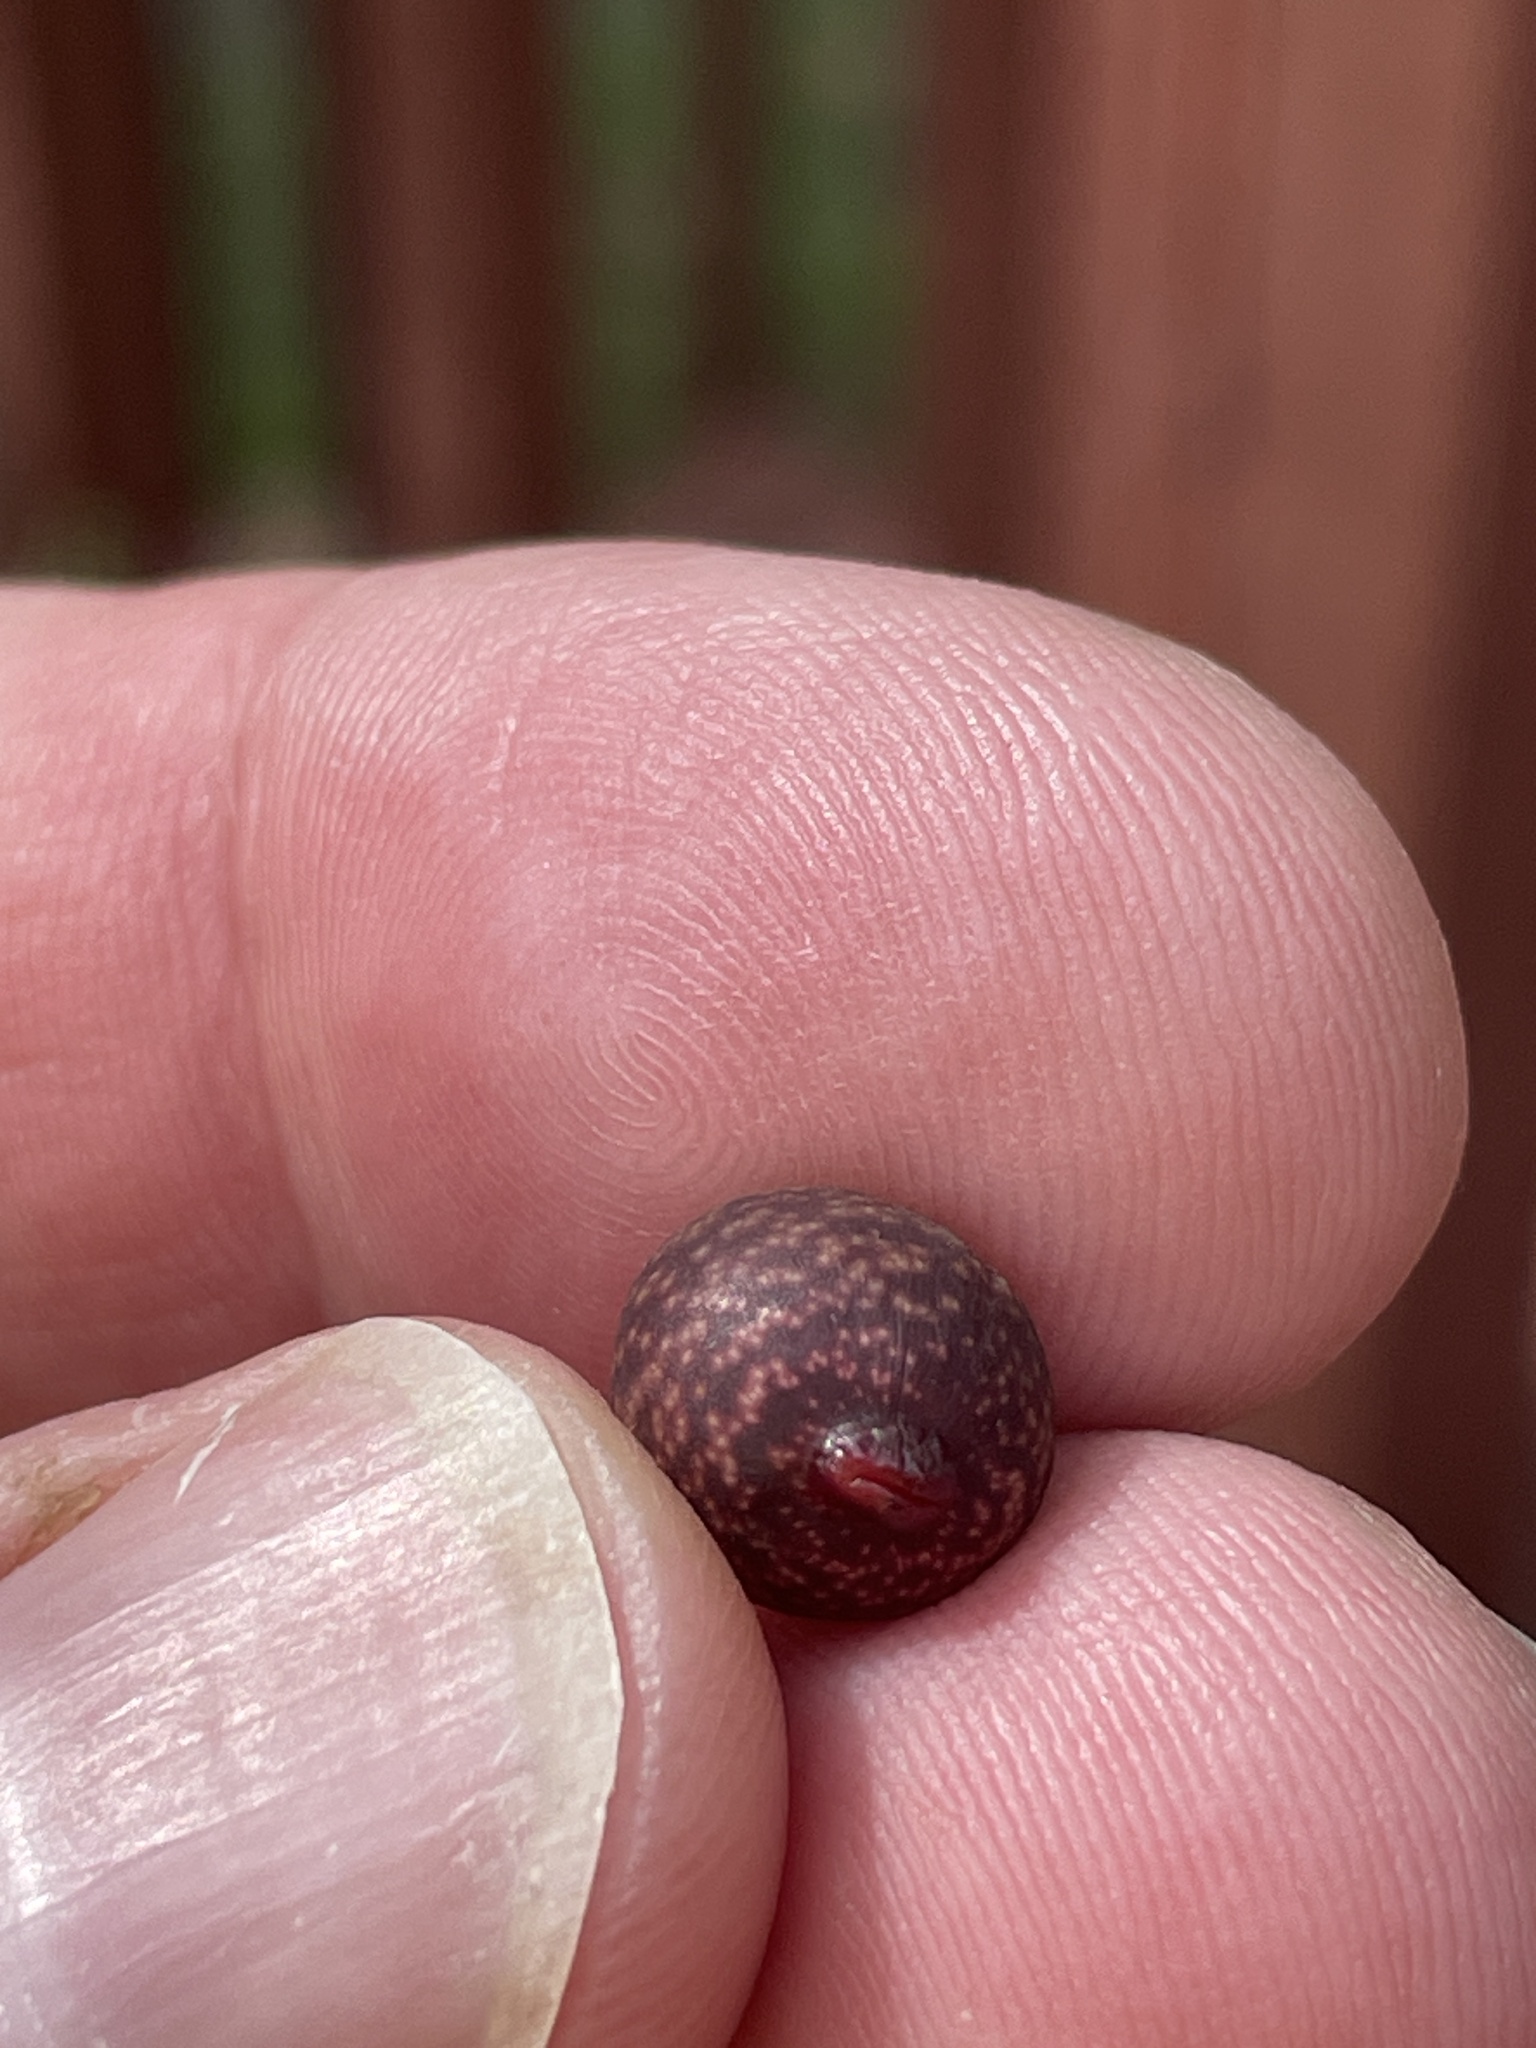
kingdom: Animalia
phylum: Arthropoda
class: Insecta
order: Hymenoptera
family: Cynipidae
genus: Kokkocynips
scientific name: Kokkocynips imbricariae
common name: Banded bullet gall wasp
